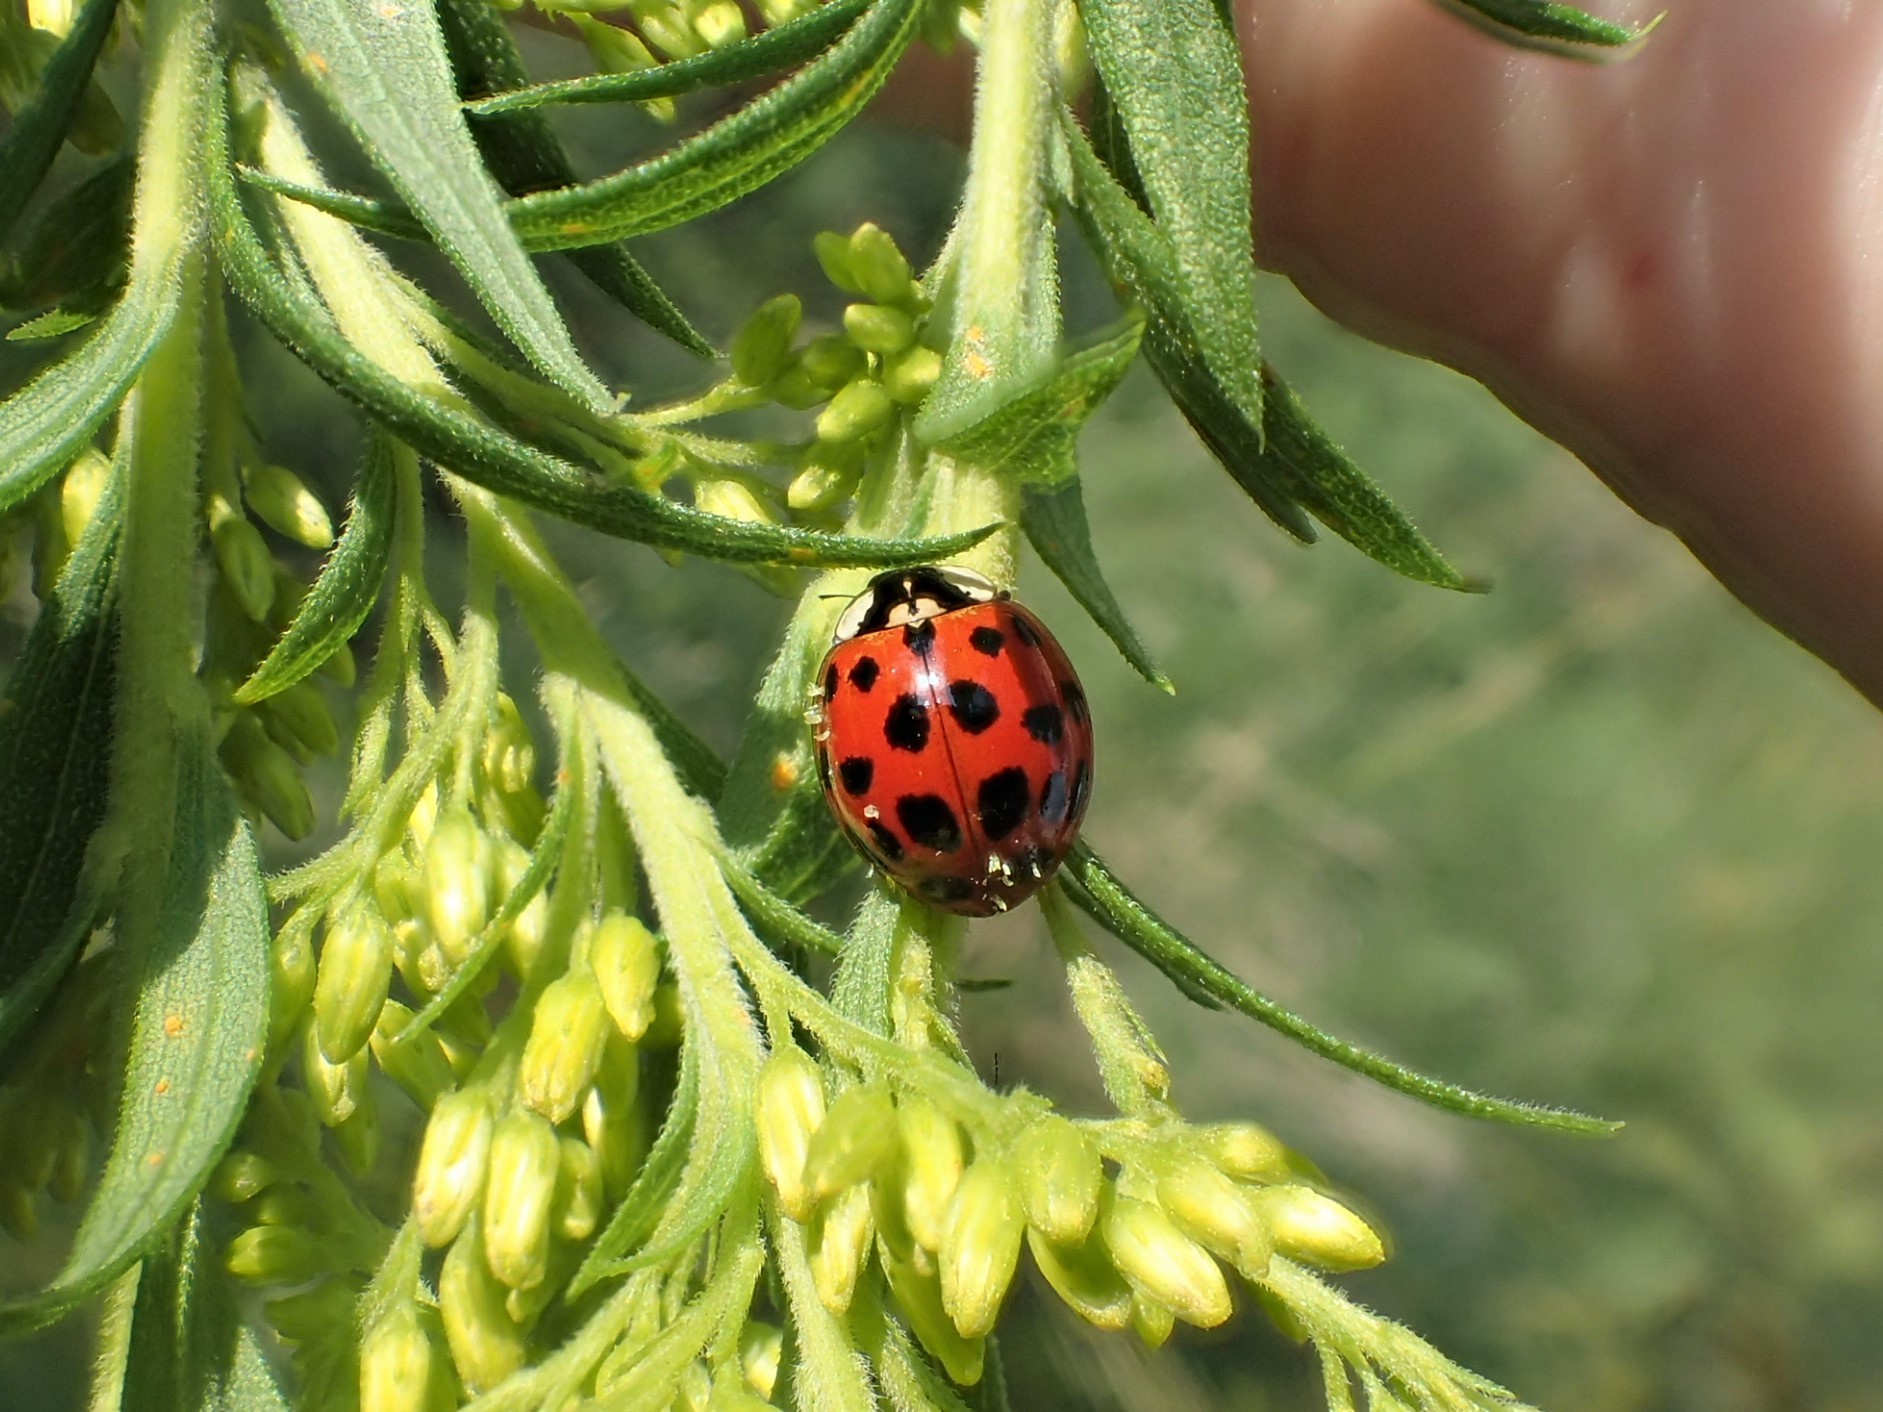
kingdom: Fungi
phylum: Ascomycota
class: Laboulbeniomycetes
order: Laboulbeniales
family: Laboulbeniaceae
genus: Hesperomyces
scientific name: Hesperomyces harmoniae
